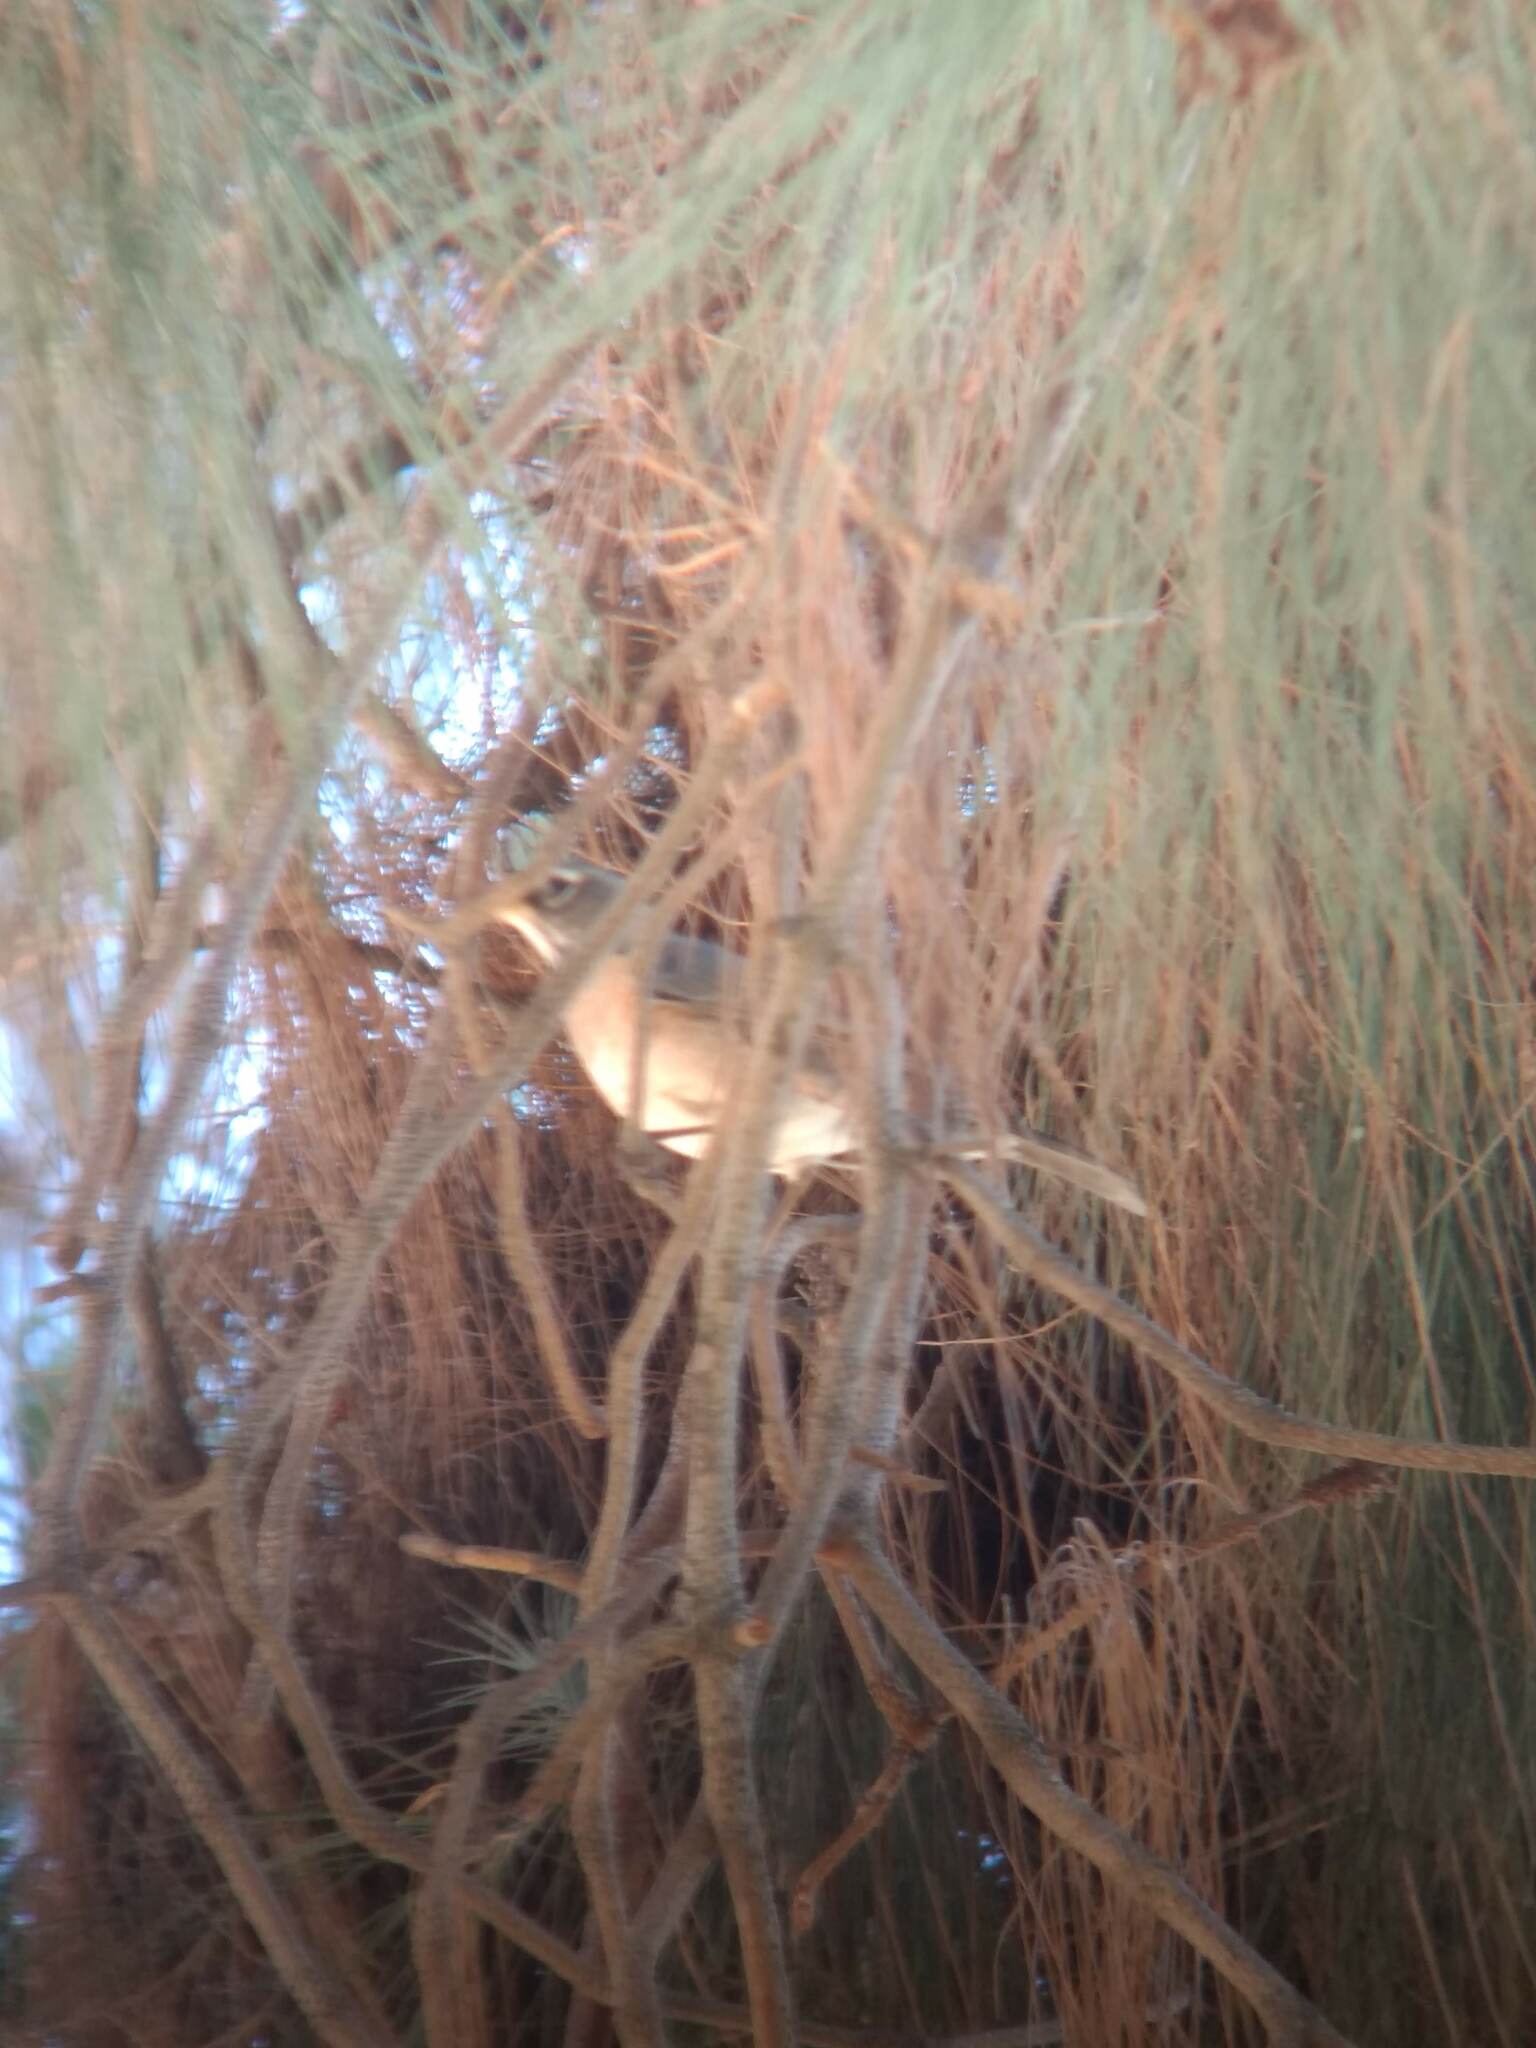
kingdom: Animalia
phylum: Chordata
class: Aves
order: Passeriformes
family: Turdidae
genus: Turdus
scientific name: Turdus migratorius
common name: American robin
